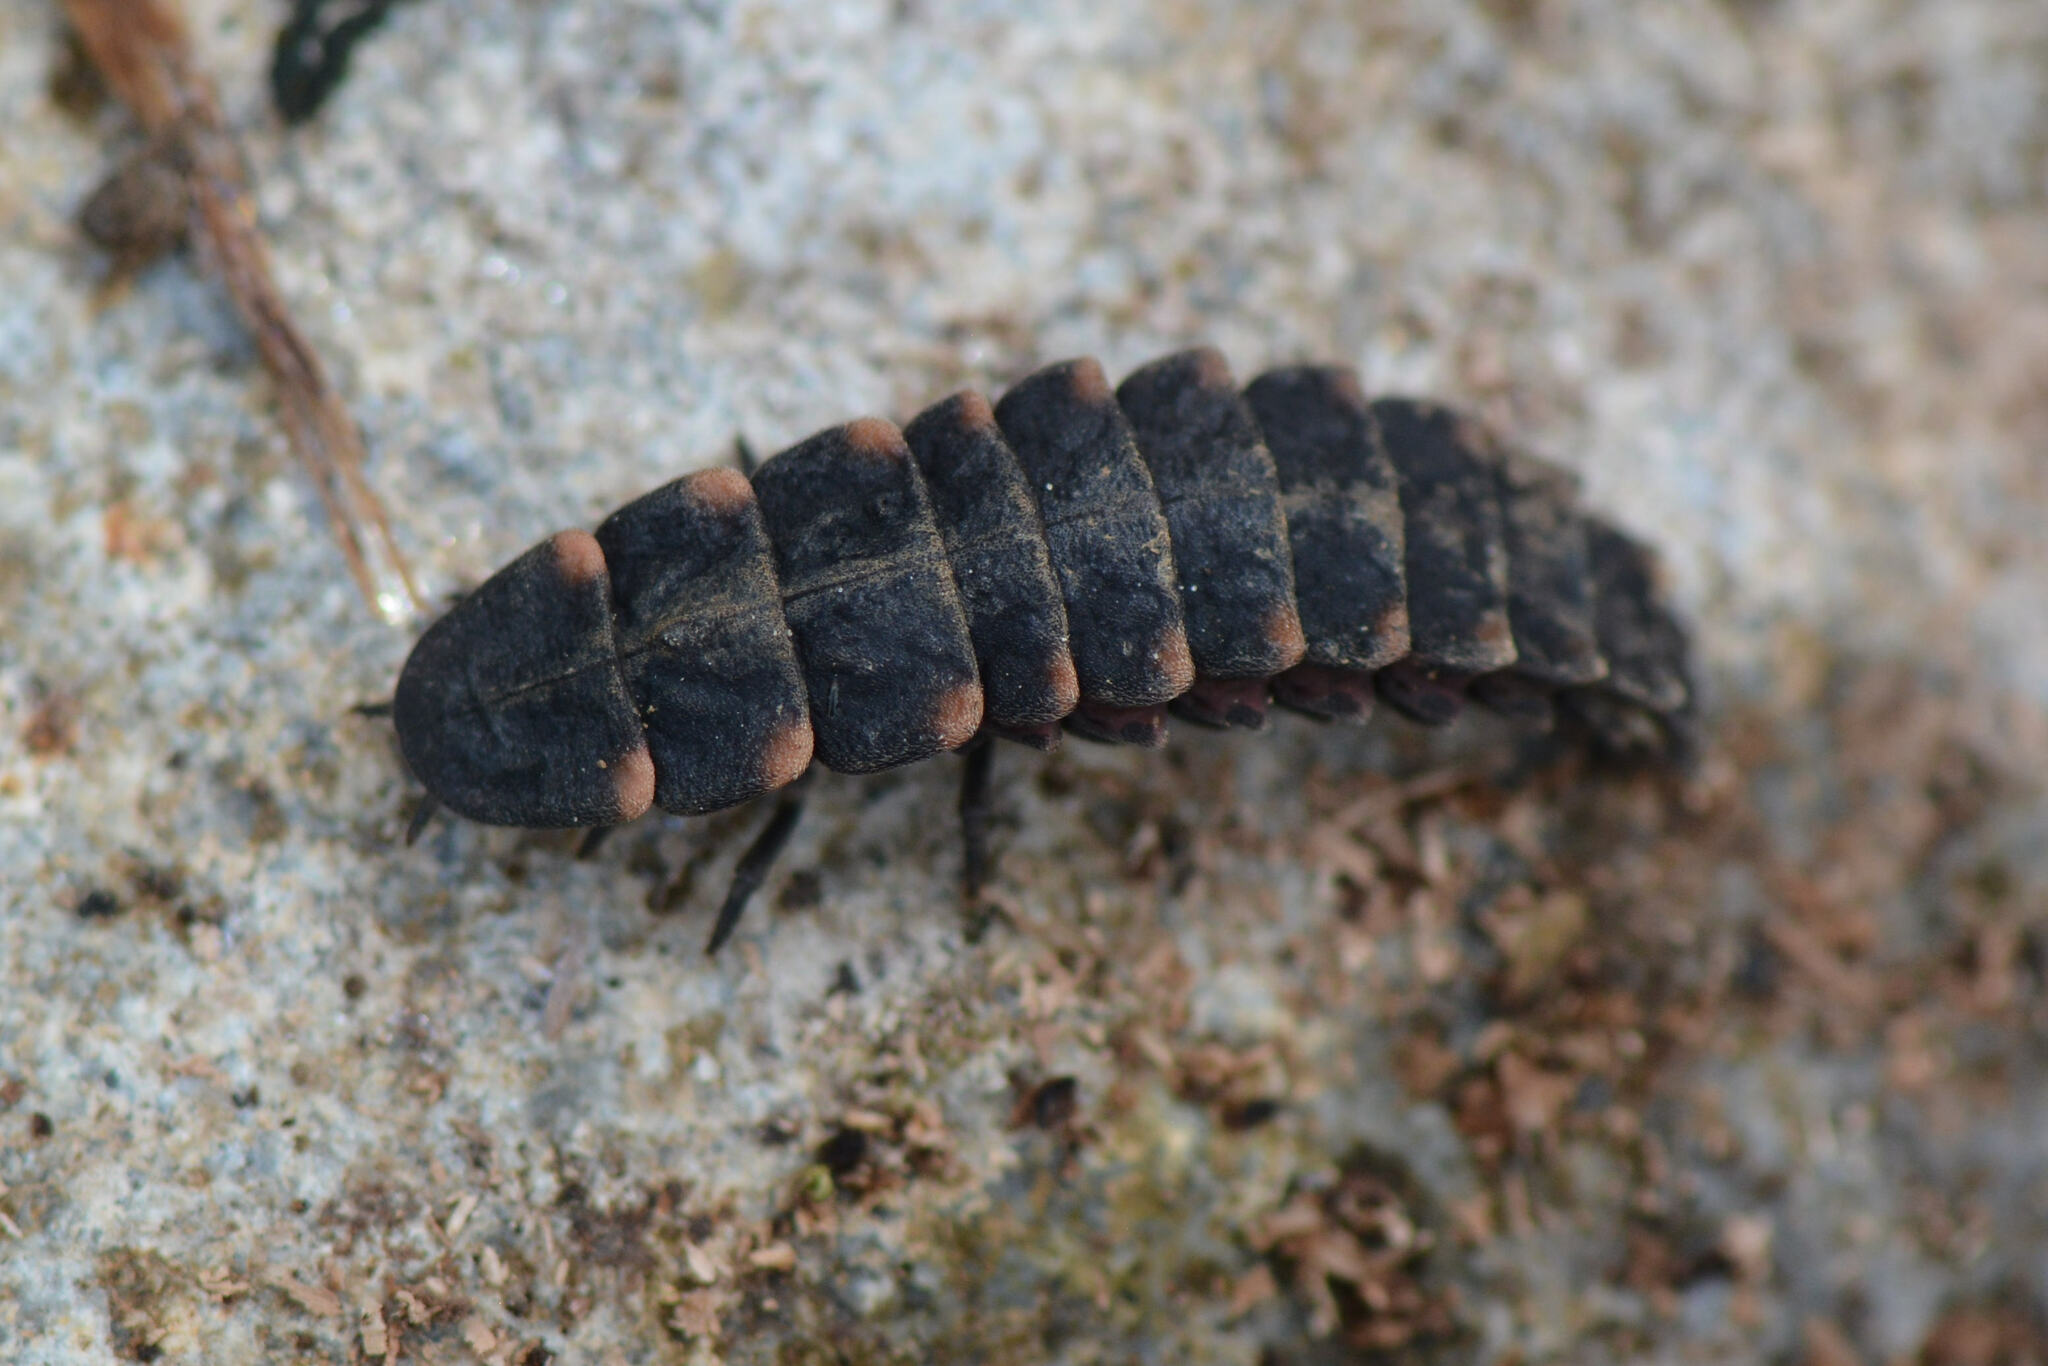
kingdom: Animalia
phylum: Arthropoda
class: Insecta
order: Coleoptera
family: Lampyridae
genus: Lampyris
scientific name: Lampyris noctiluca
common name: Glow-worm
